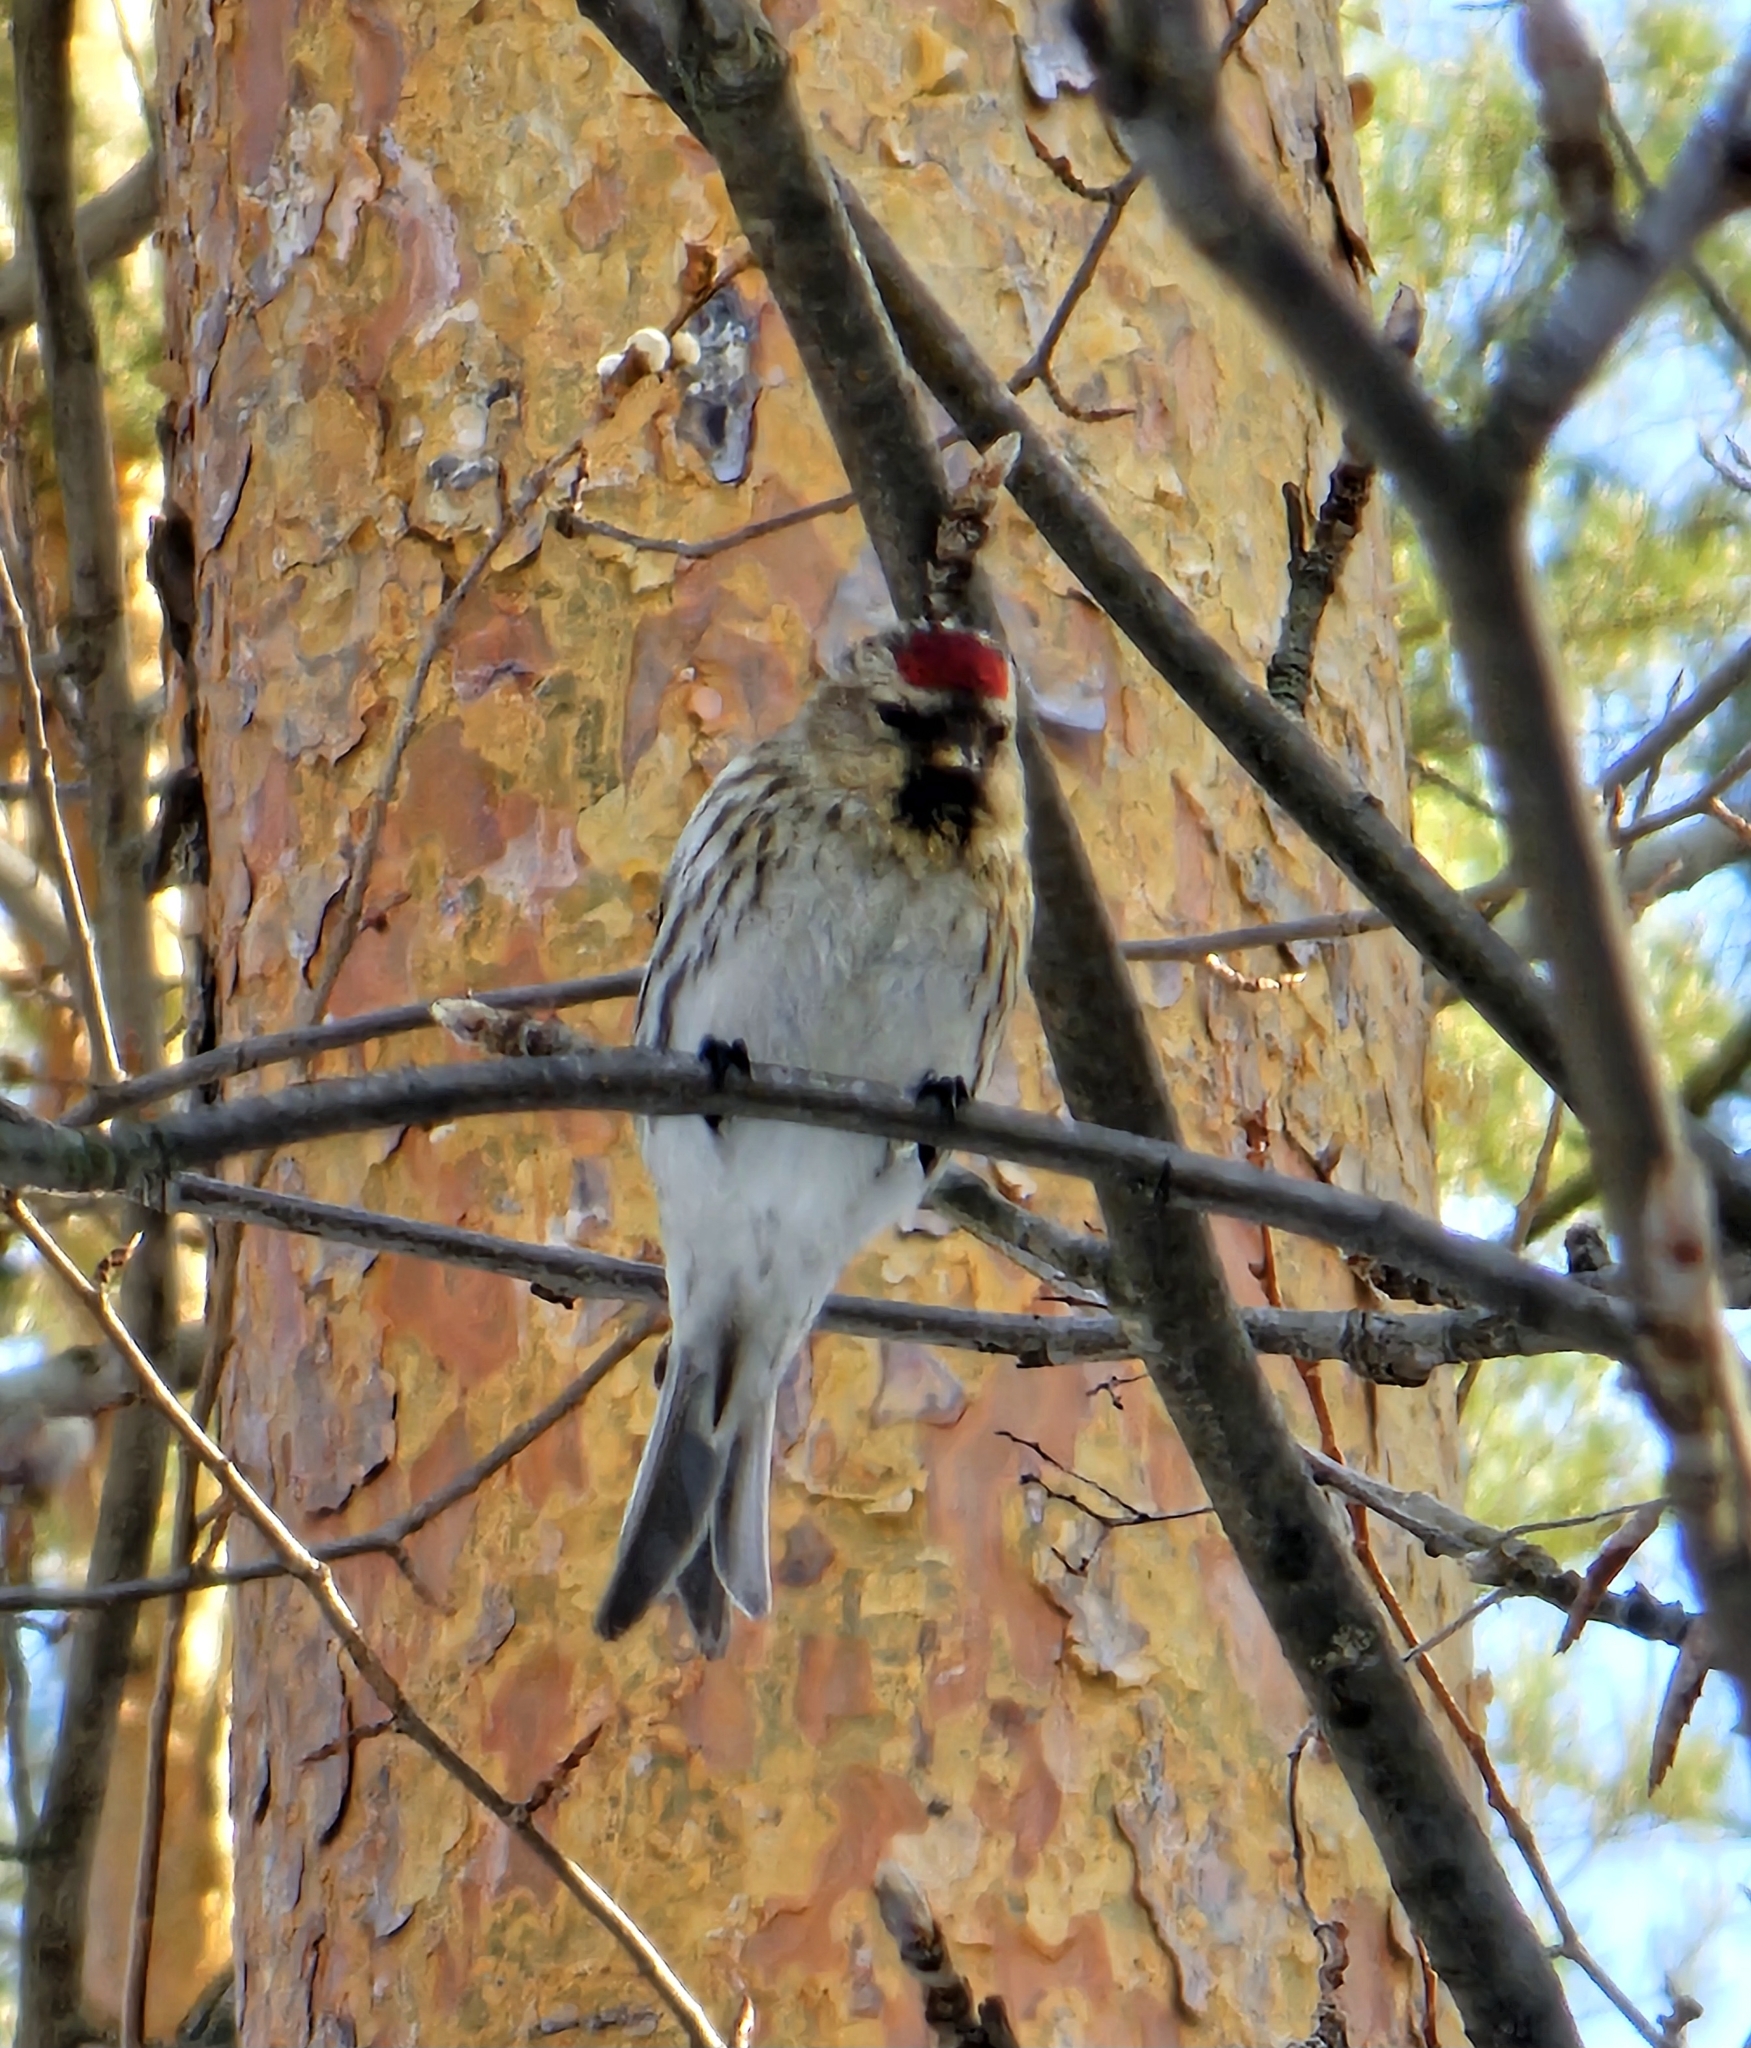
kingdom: Animalia
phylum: Chordata
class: Aves
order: Passeriformes
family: Fringillidae
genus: Acanthis
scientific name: Acanthis flammea
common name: Common redpoll
